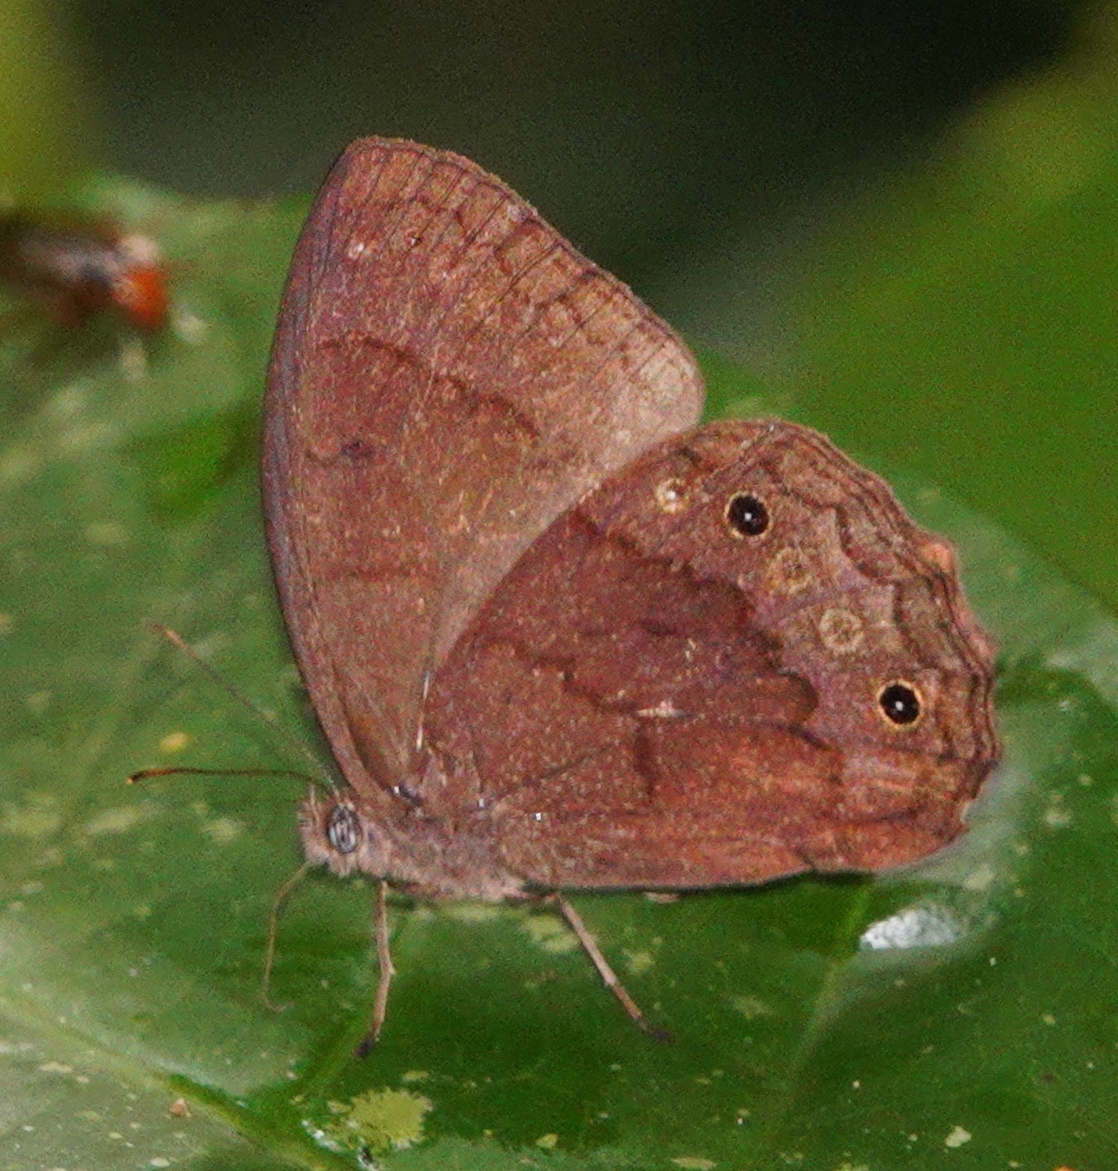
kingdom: Animalia
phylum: Arthropoda
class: Insecta
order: Lepidoptera
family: Nymphalidae
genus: Harjesia
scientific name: Harjesia obscura
